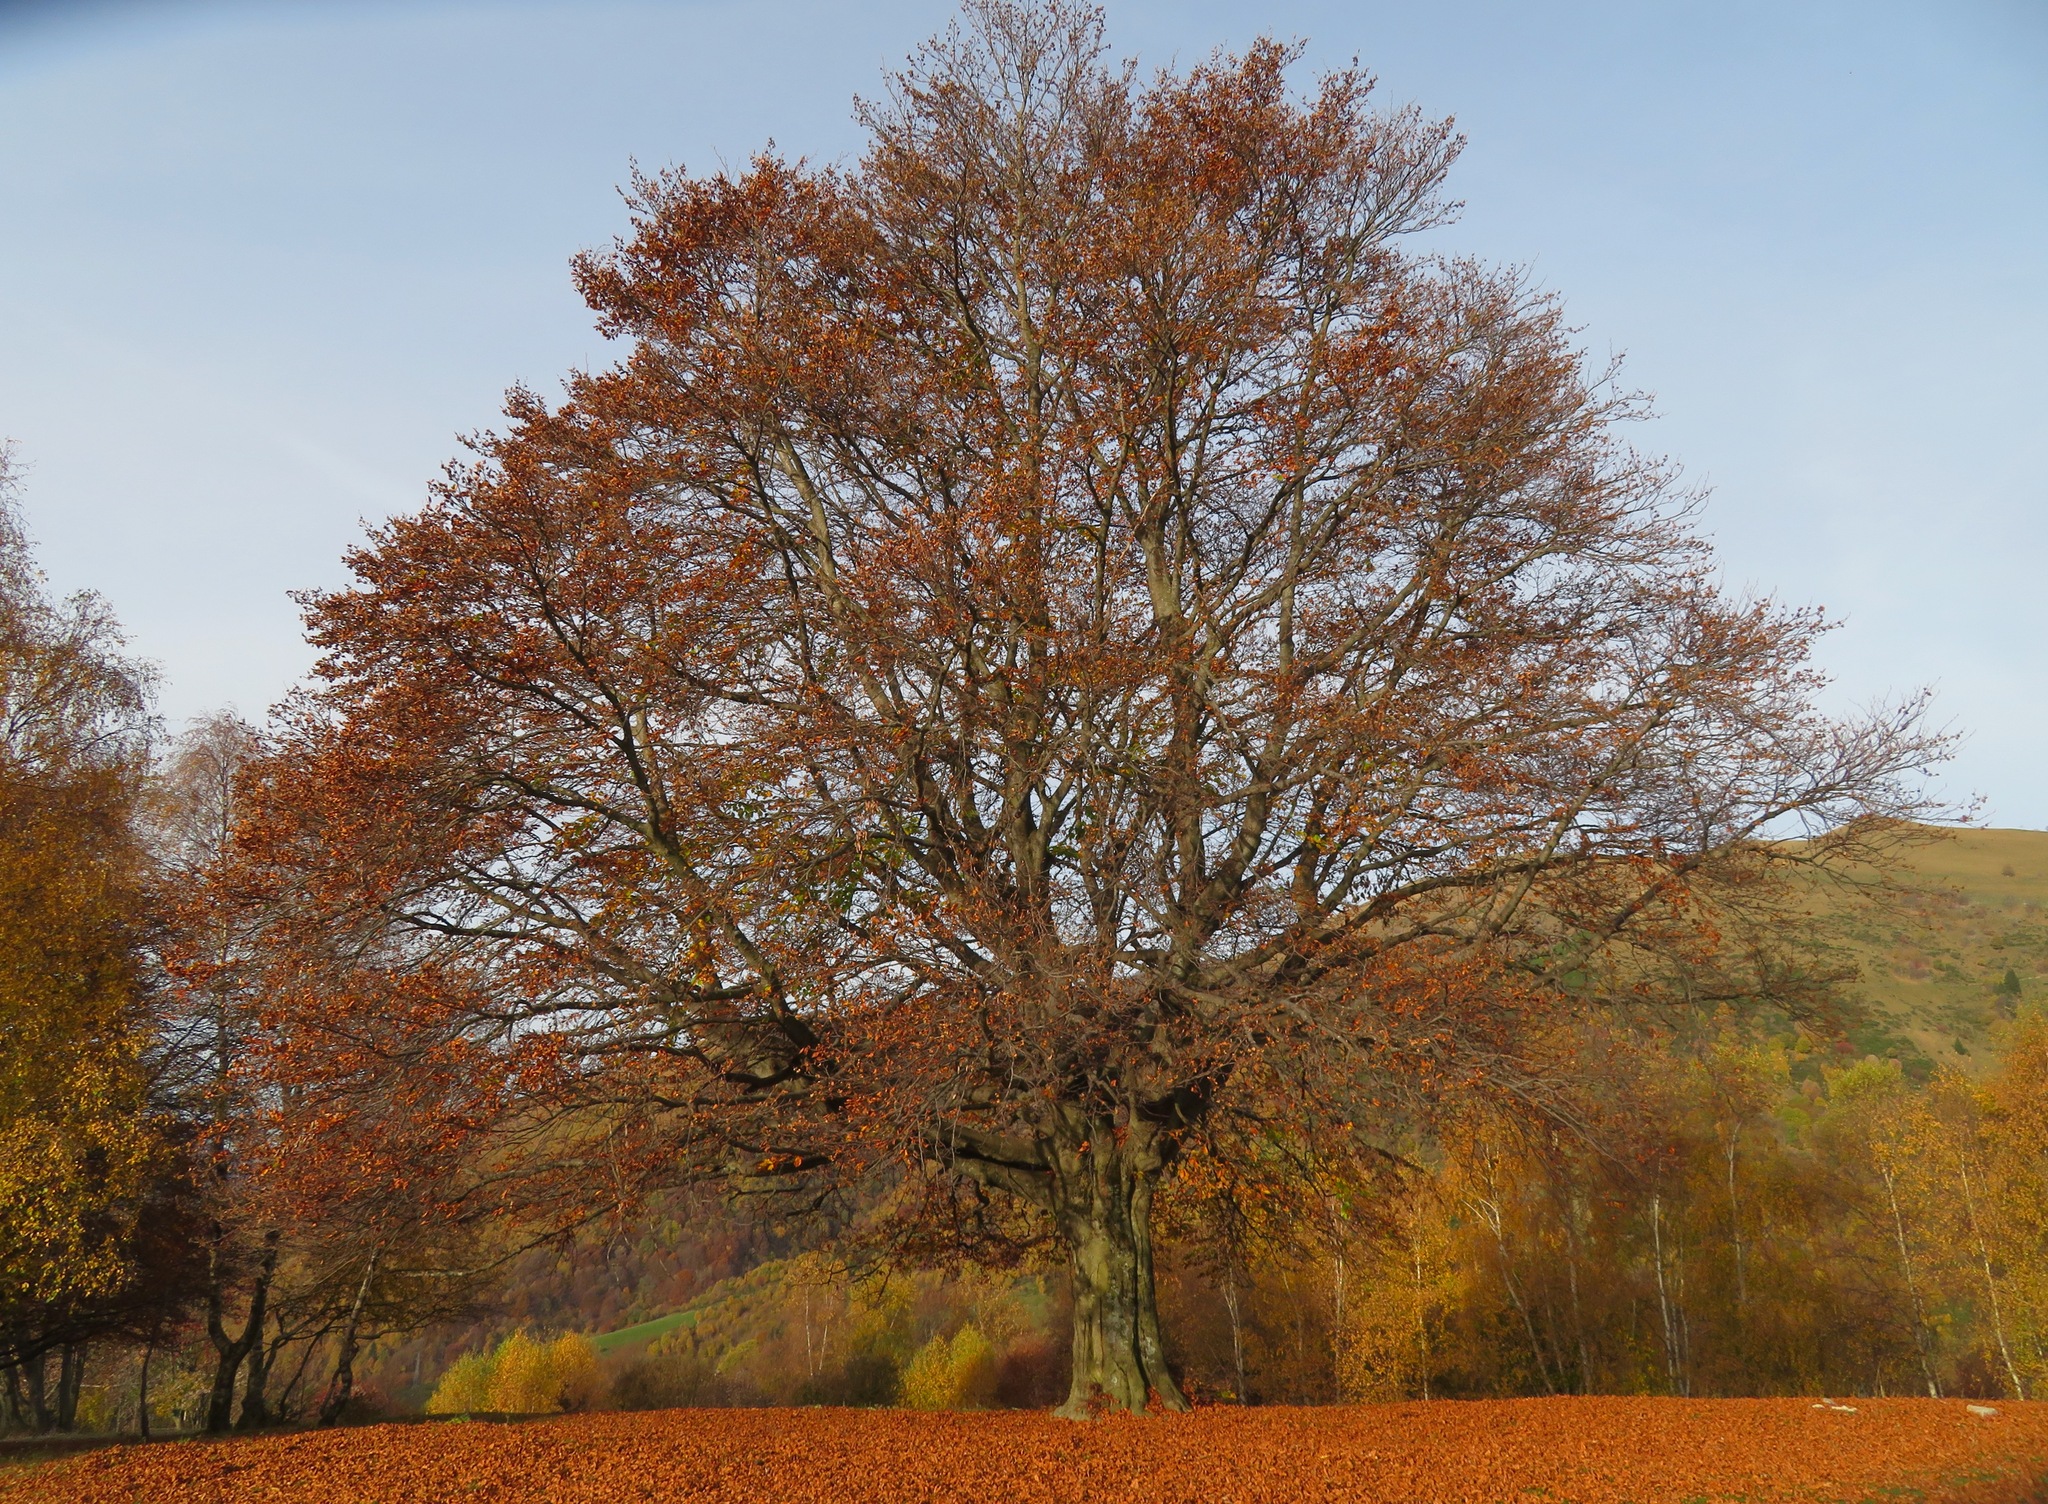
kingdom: Plantae
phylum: Tracheophyta
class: Magnoliopsida
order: Fagales
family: Fagaceae
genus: Fagus
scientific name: Fagus sylvatica
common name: Beech
